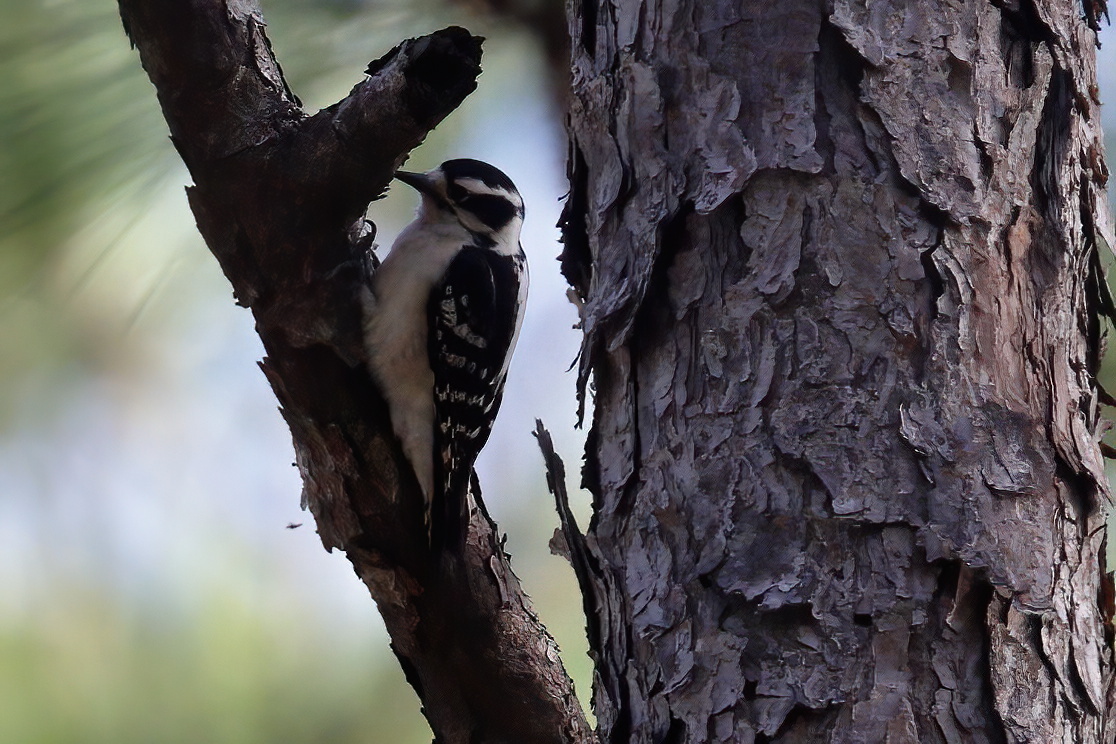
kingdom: Animalia
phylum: Chordata
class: Aves
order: Piciformes
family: Picidae
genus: Dryobates
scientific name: Dryobates pubescens
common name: Downy woodpecker
